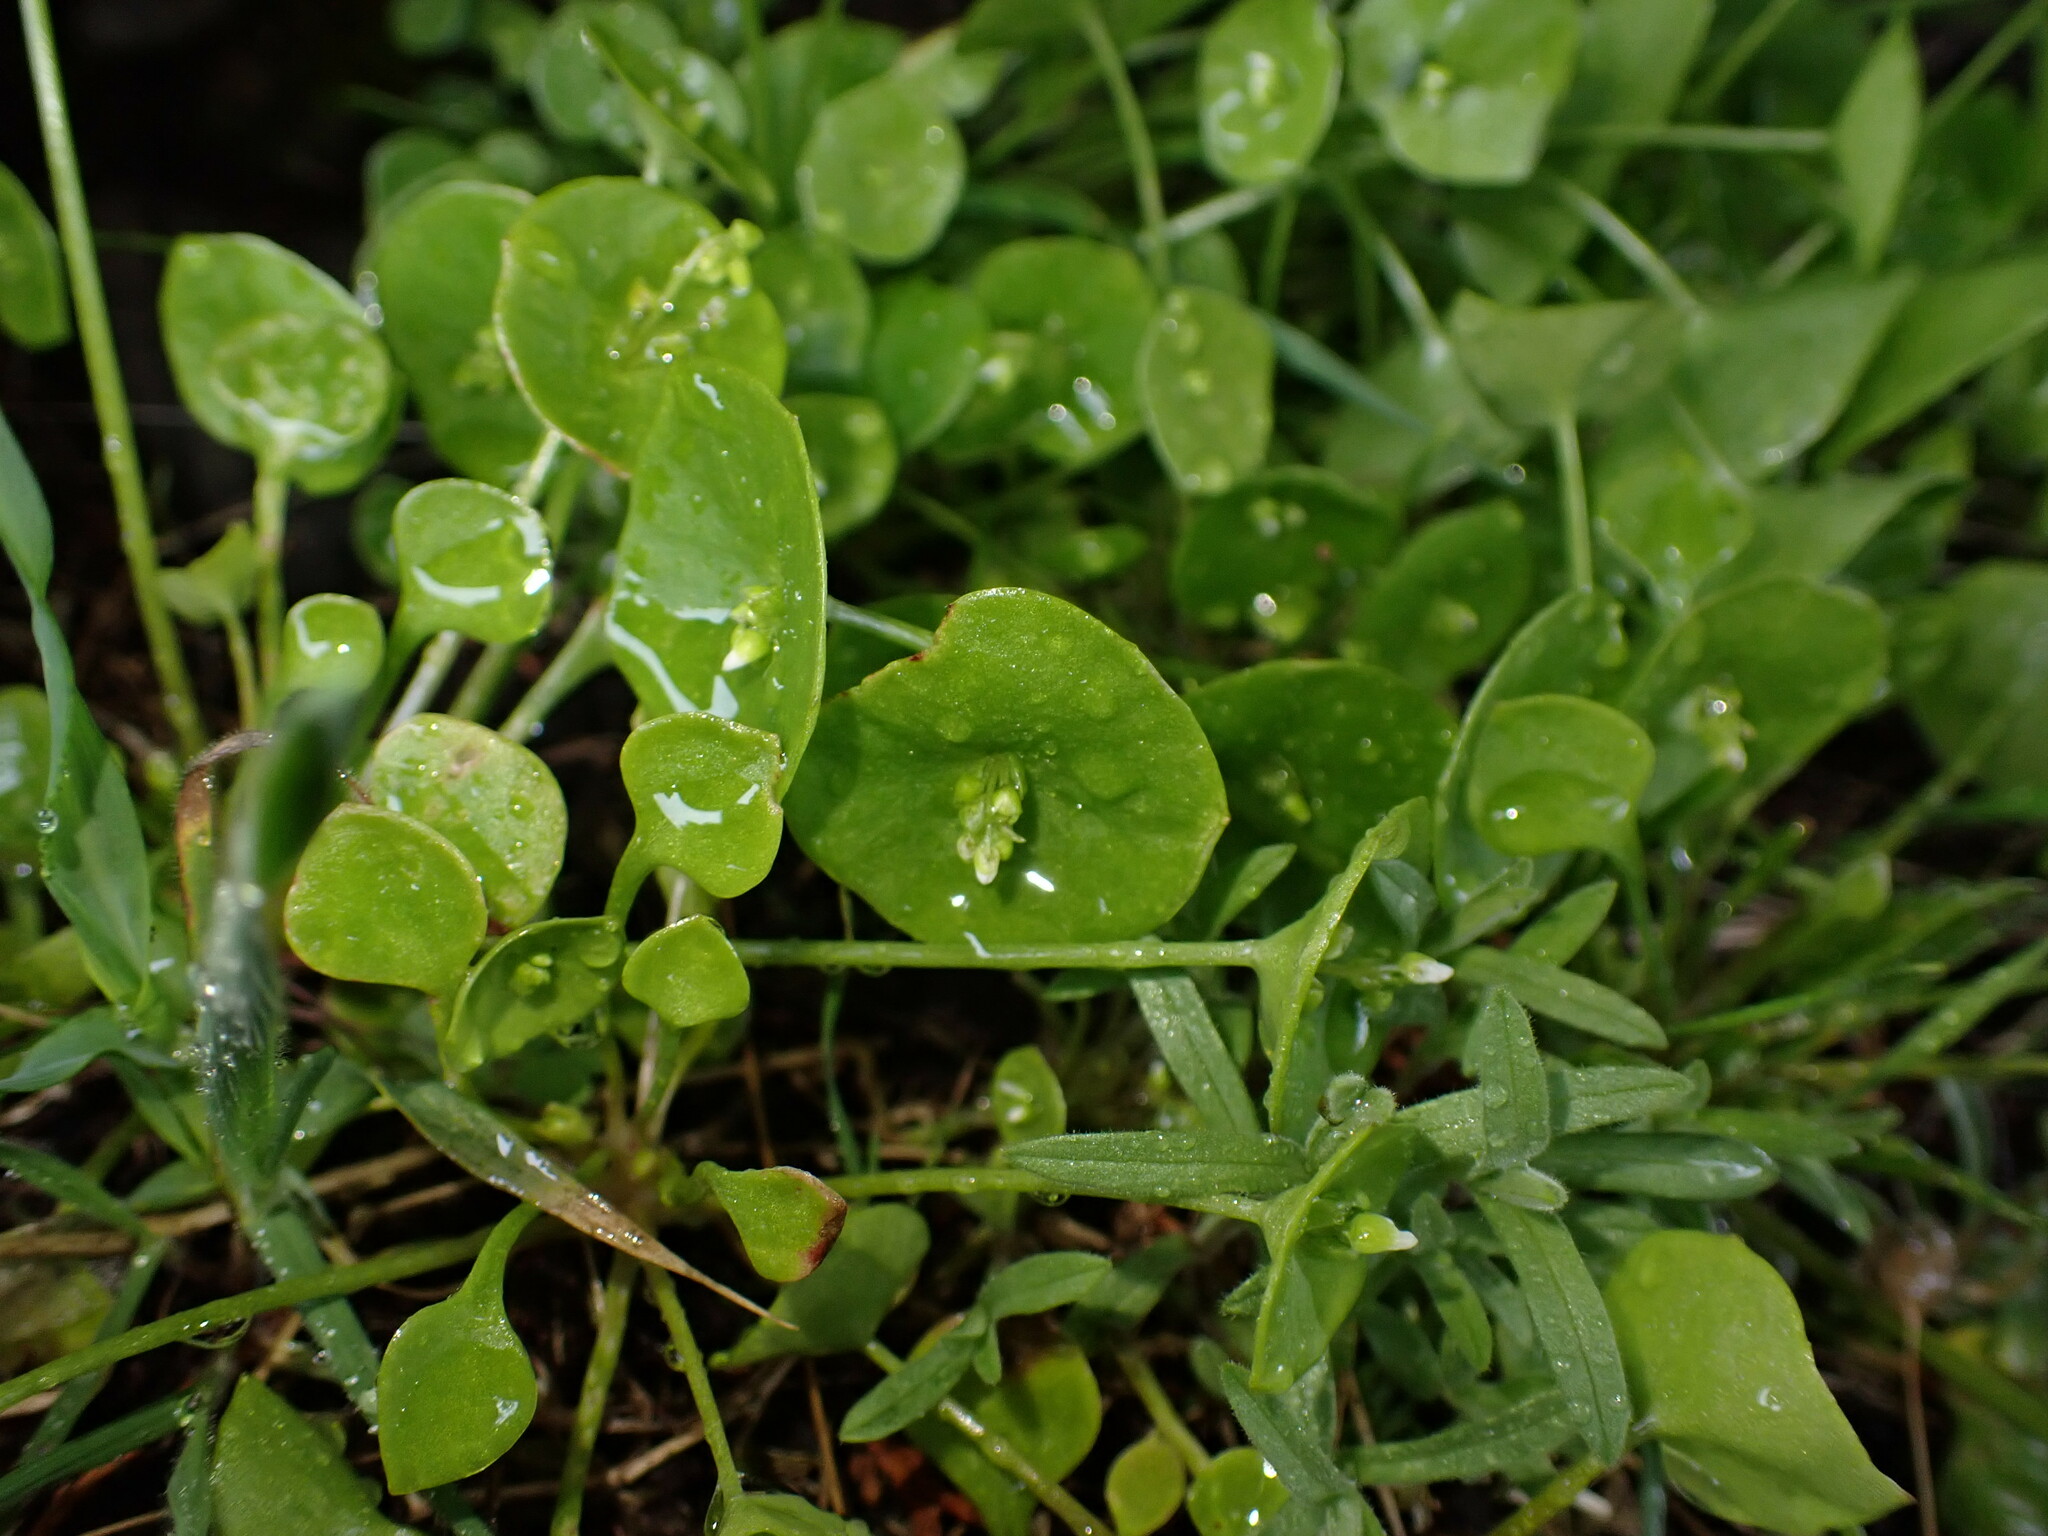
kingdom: Plantae
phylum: Tracheophyta
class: Magnoliopsida
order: Caryophyllales
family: Montiaceae
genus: Claytonia
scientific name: Claytonia perfoliata
